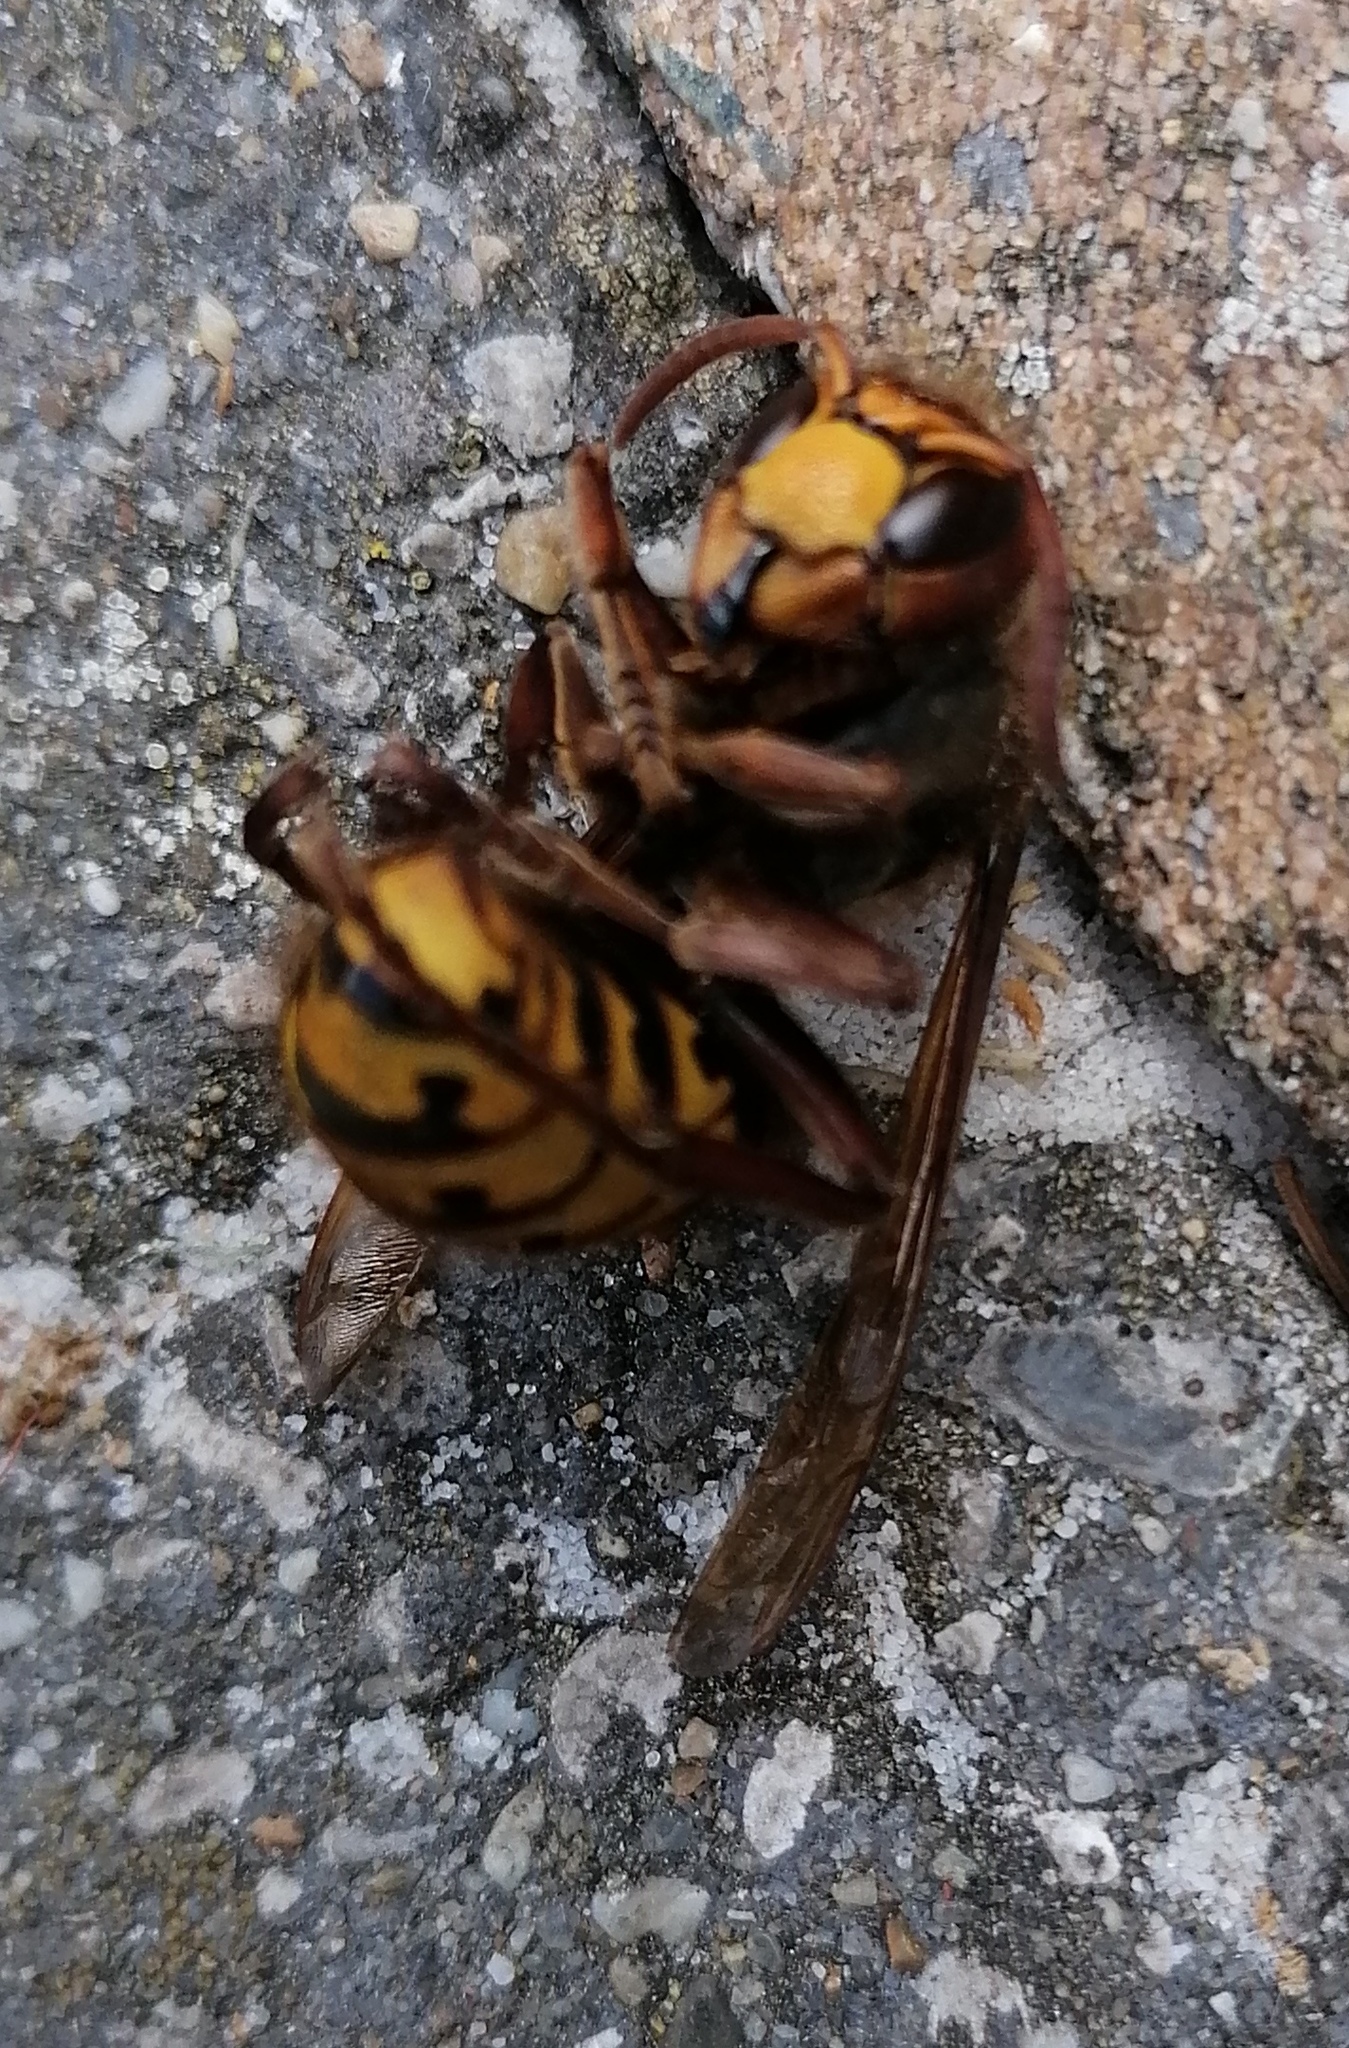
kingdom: Animalia
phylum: Arthropoda
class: Insecta
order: Hymenoptera
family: Vespidae
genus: Vespa
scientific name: Vespa crabro
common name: Hornet
